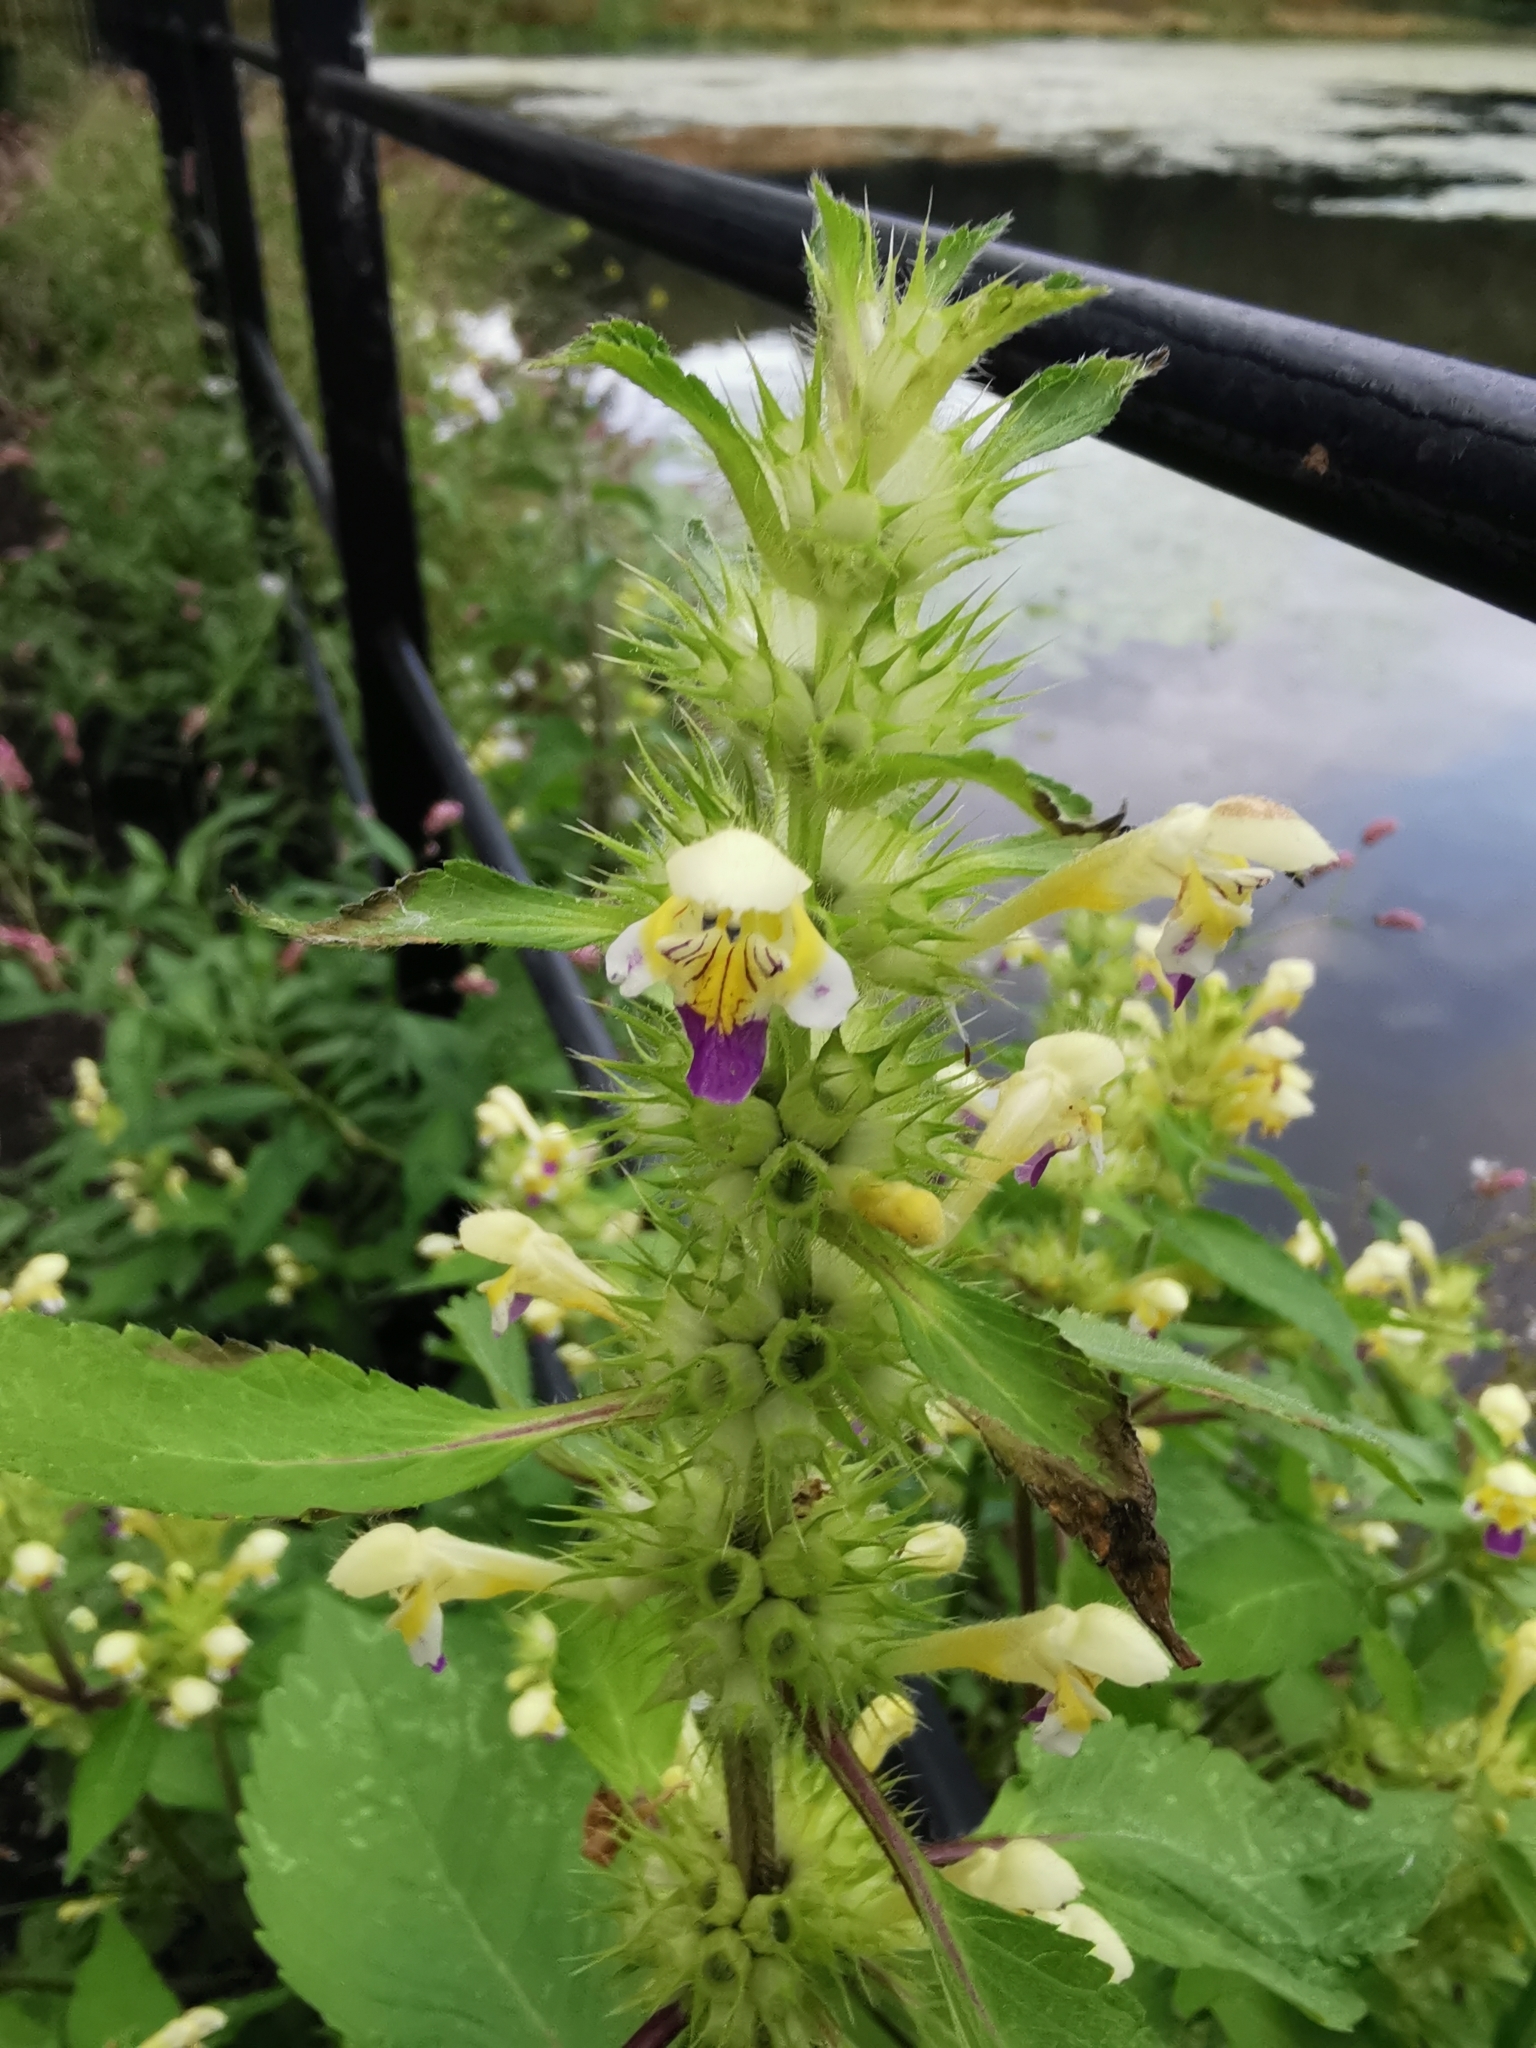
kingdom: Plantae
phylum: Tracheophyta
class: Magnoliopsida
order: Lamiales
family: Lamiaceae
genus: Galeopsis
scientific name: Galeopsis speciosa
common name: Large-flowered hemp-nettle
